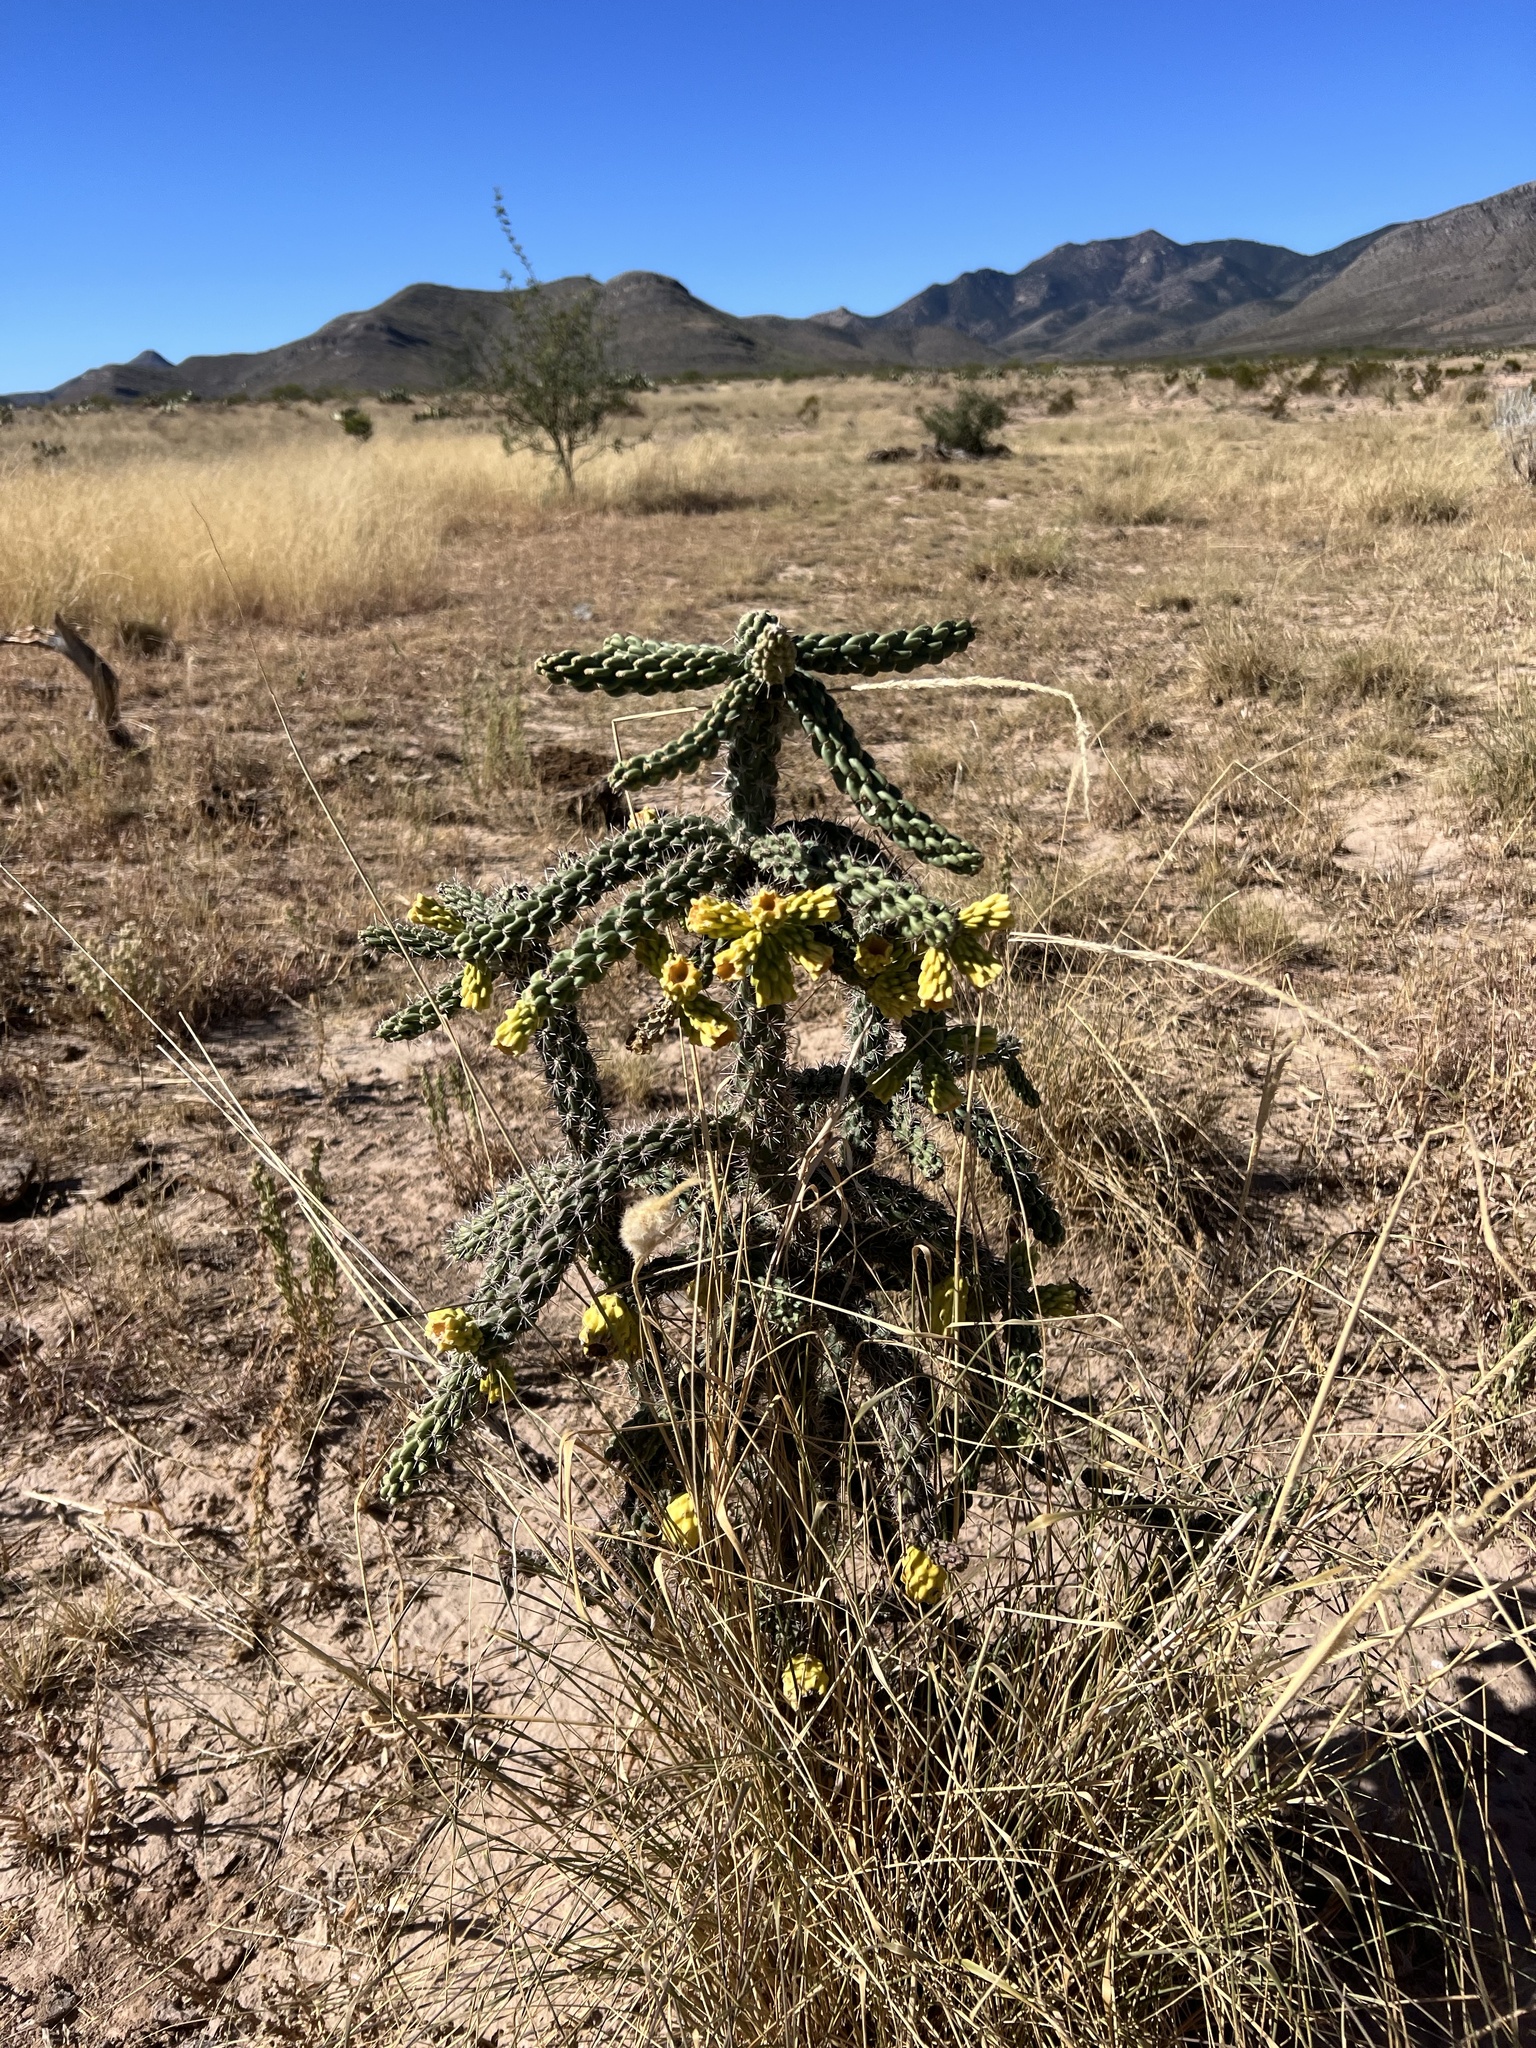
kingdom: Plantae
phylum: Tracheophyta
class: Magnoliopsida
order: Caryophyllales
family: Cactaceae
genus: Cylindropuntia
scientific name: Cylindropuntia imbricata
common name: Candelabrum cactus
